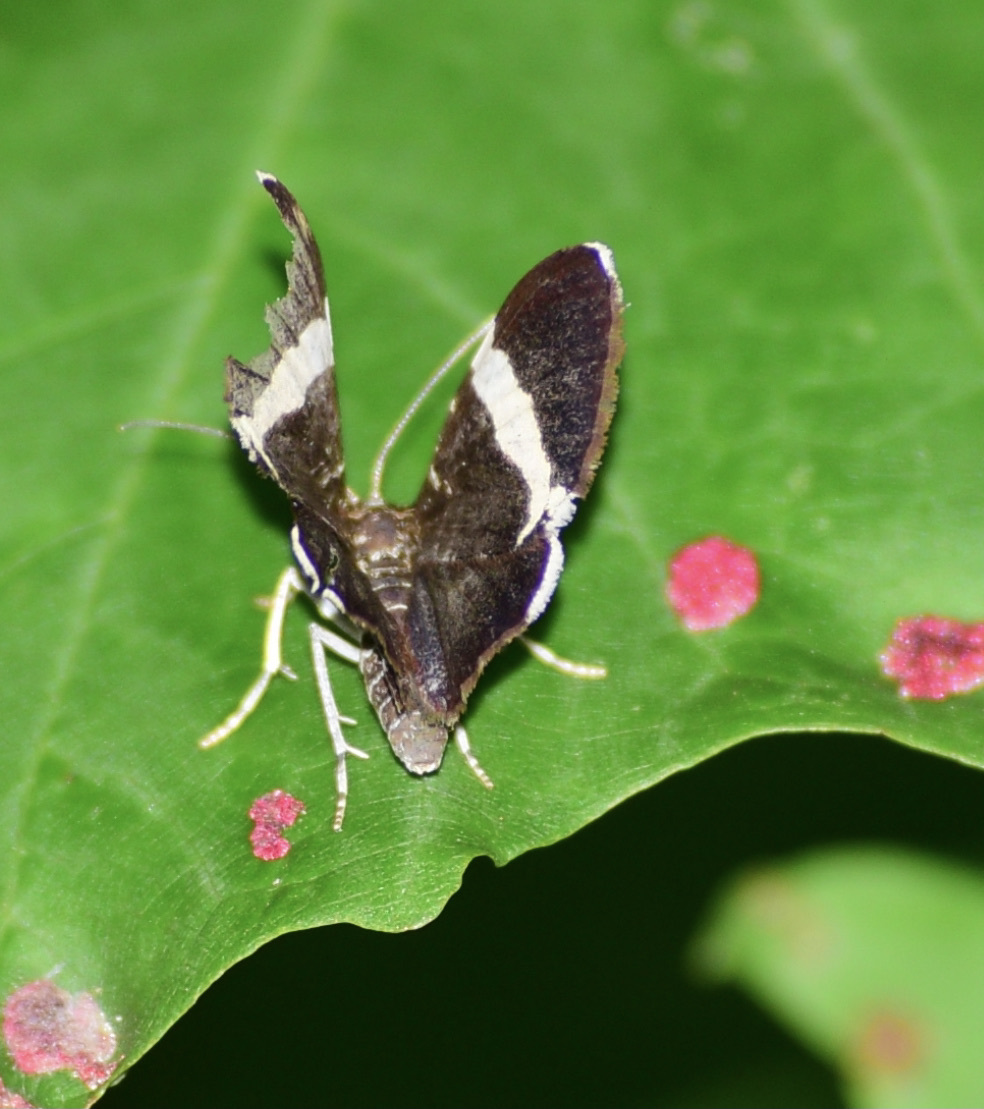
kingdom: Animalia
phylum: Arthropoda
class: Insecta
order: Lepidoptera
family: Geometridae
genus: Trichodezia
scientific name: Trichodezia albovittata
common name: White striped black
